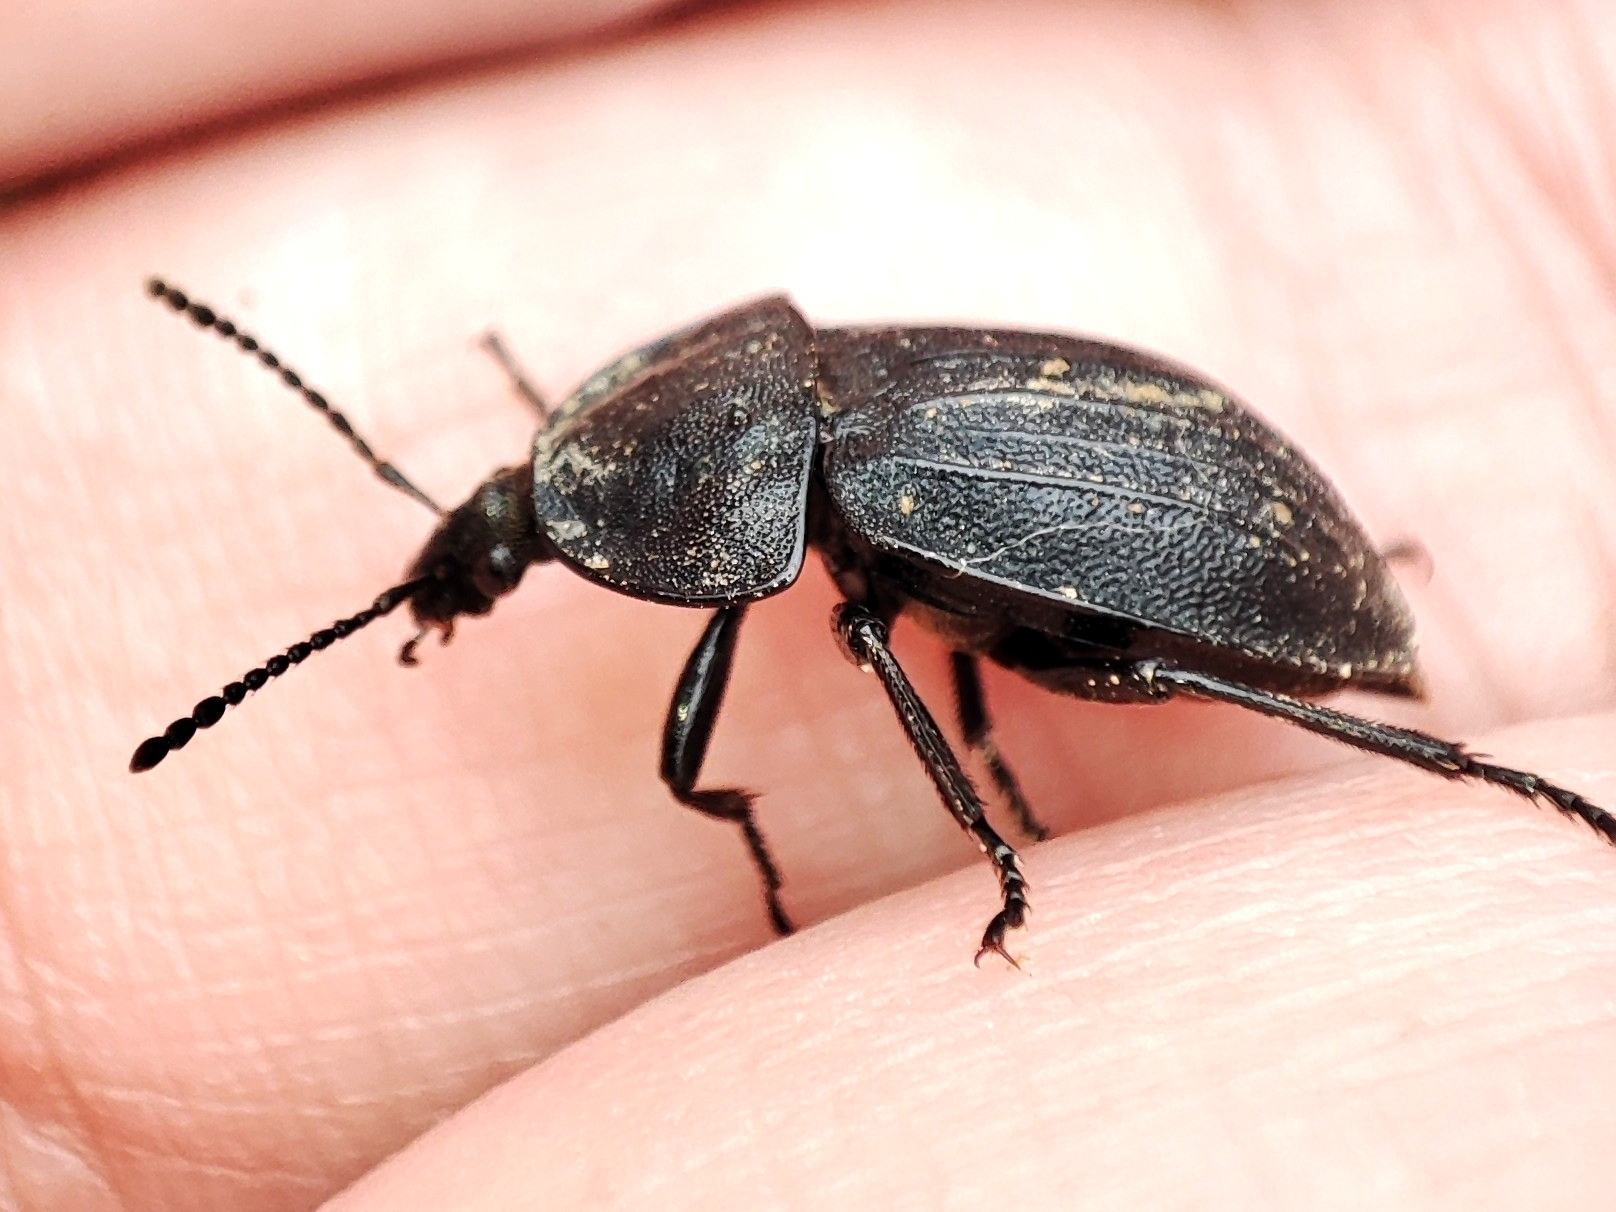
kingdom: Animalia
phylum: Arthropoda
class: Insecta
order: Coleoptera
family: Staphylinidae
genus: Silpha
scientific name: Silpha atrata
